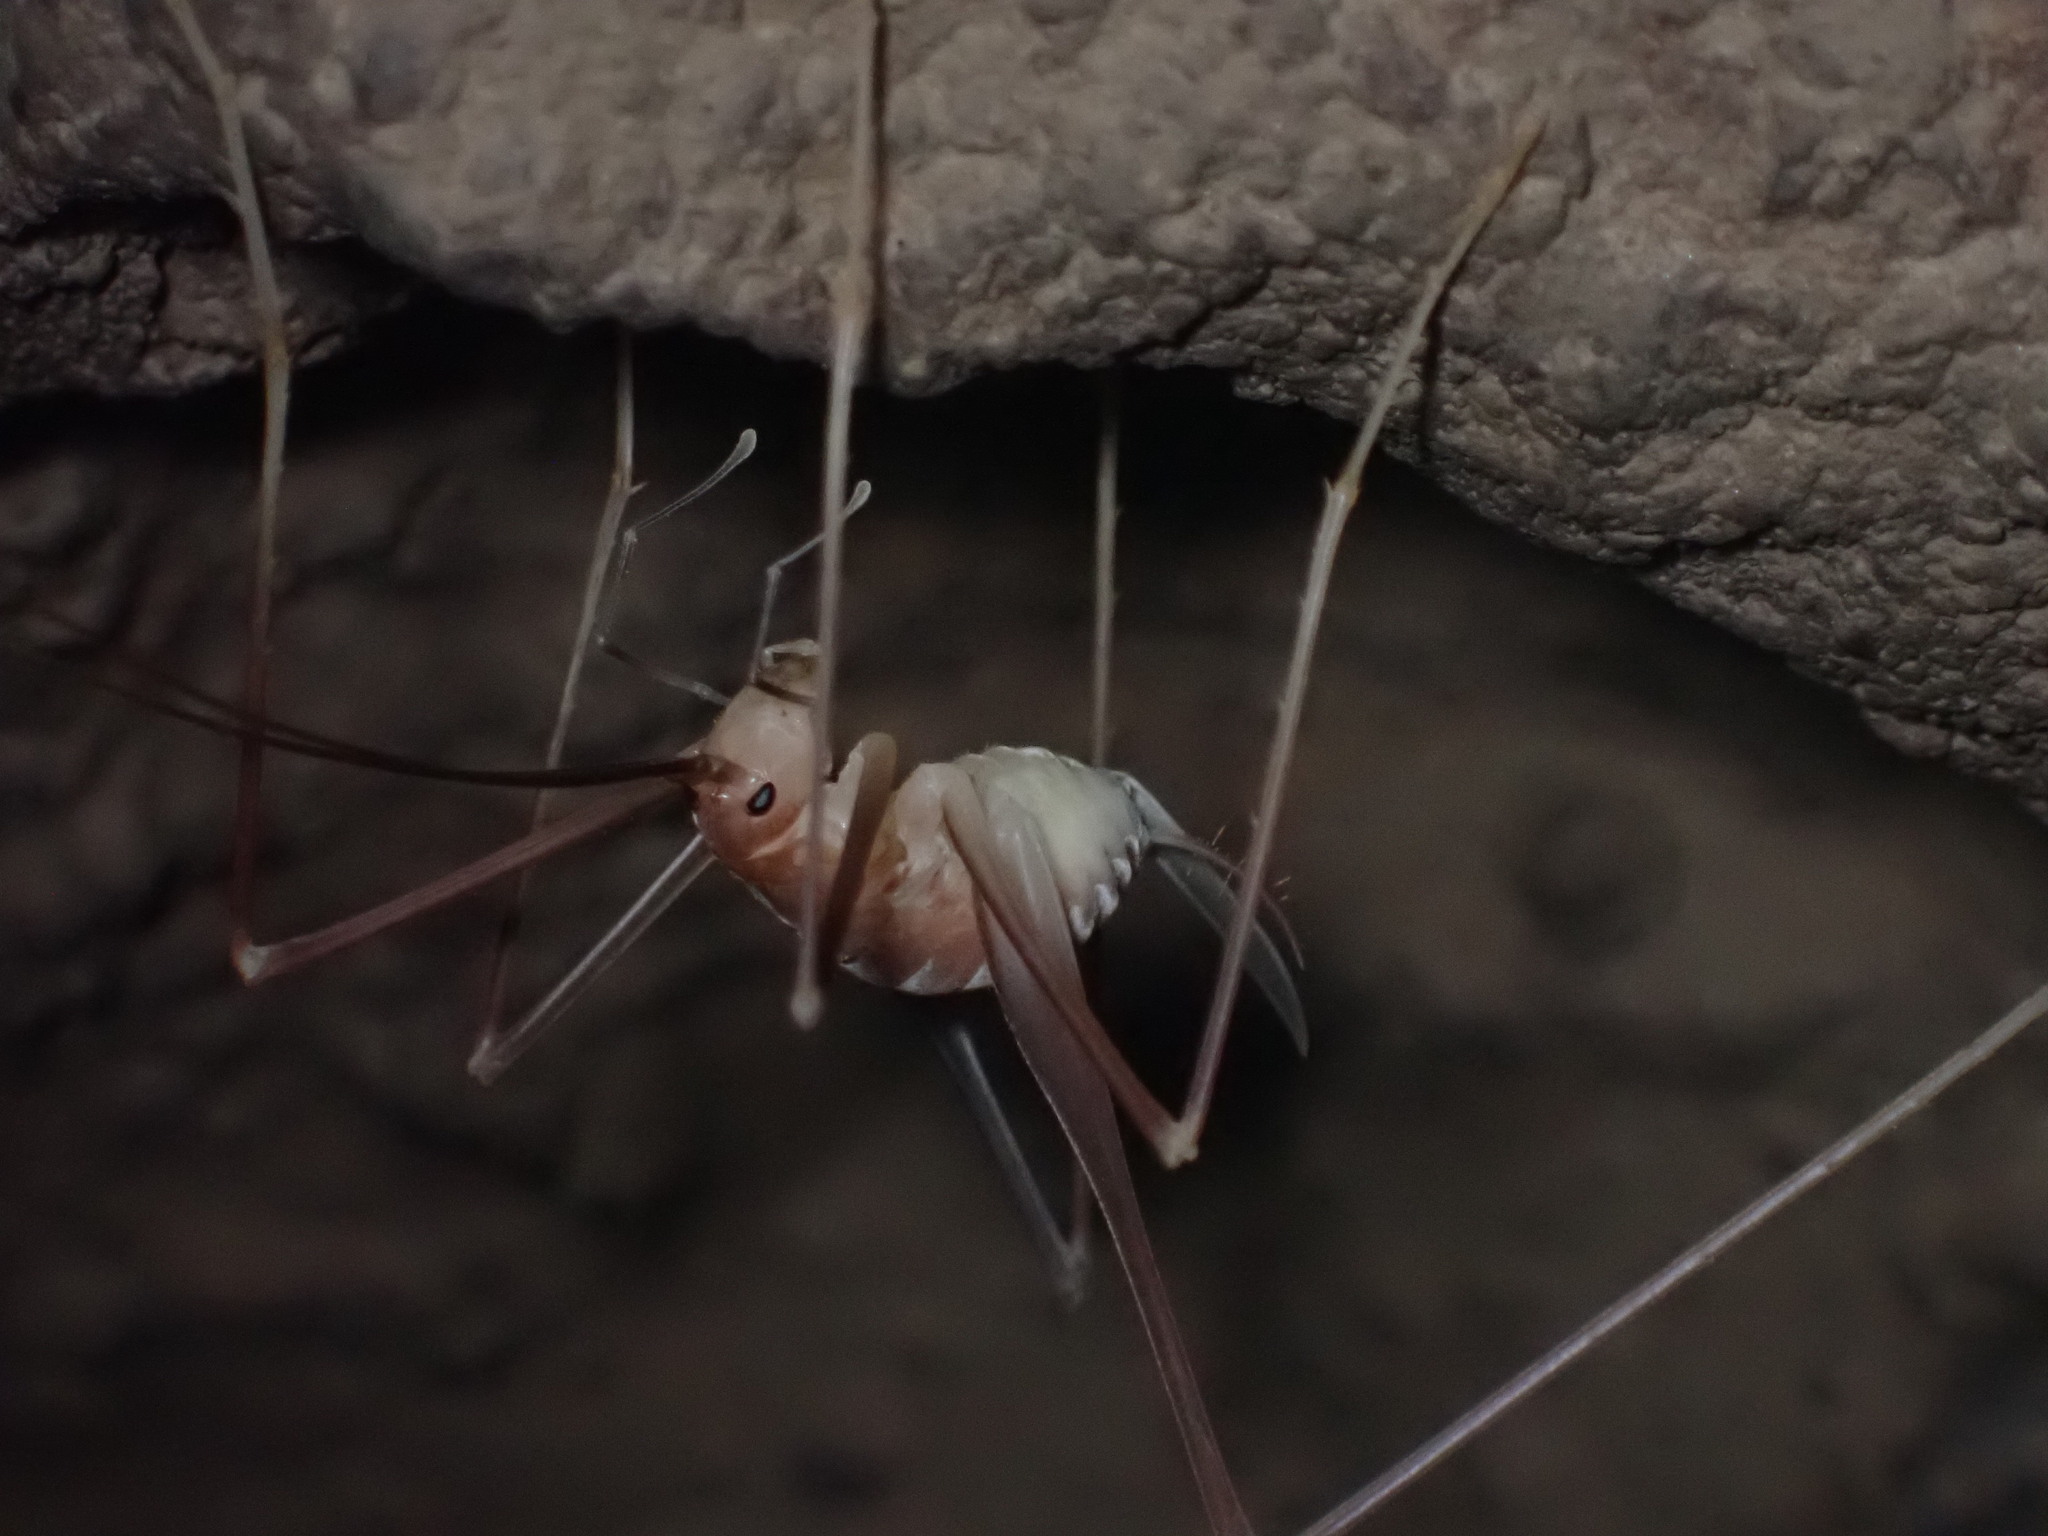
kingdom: Animalia
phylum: Arthropoda
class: Insecta
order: Orthoptera
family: Rhaphidophoridae
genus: Hadenoecus
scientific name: Hadenoecus jonesi
